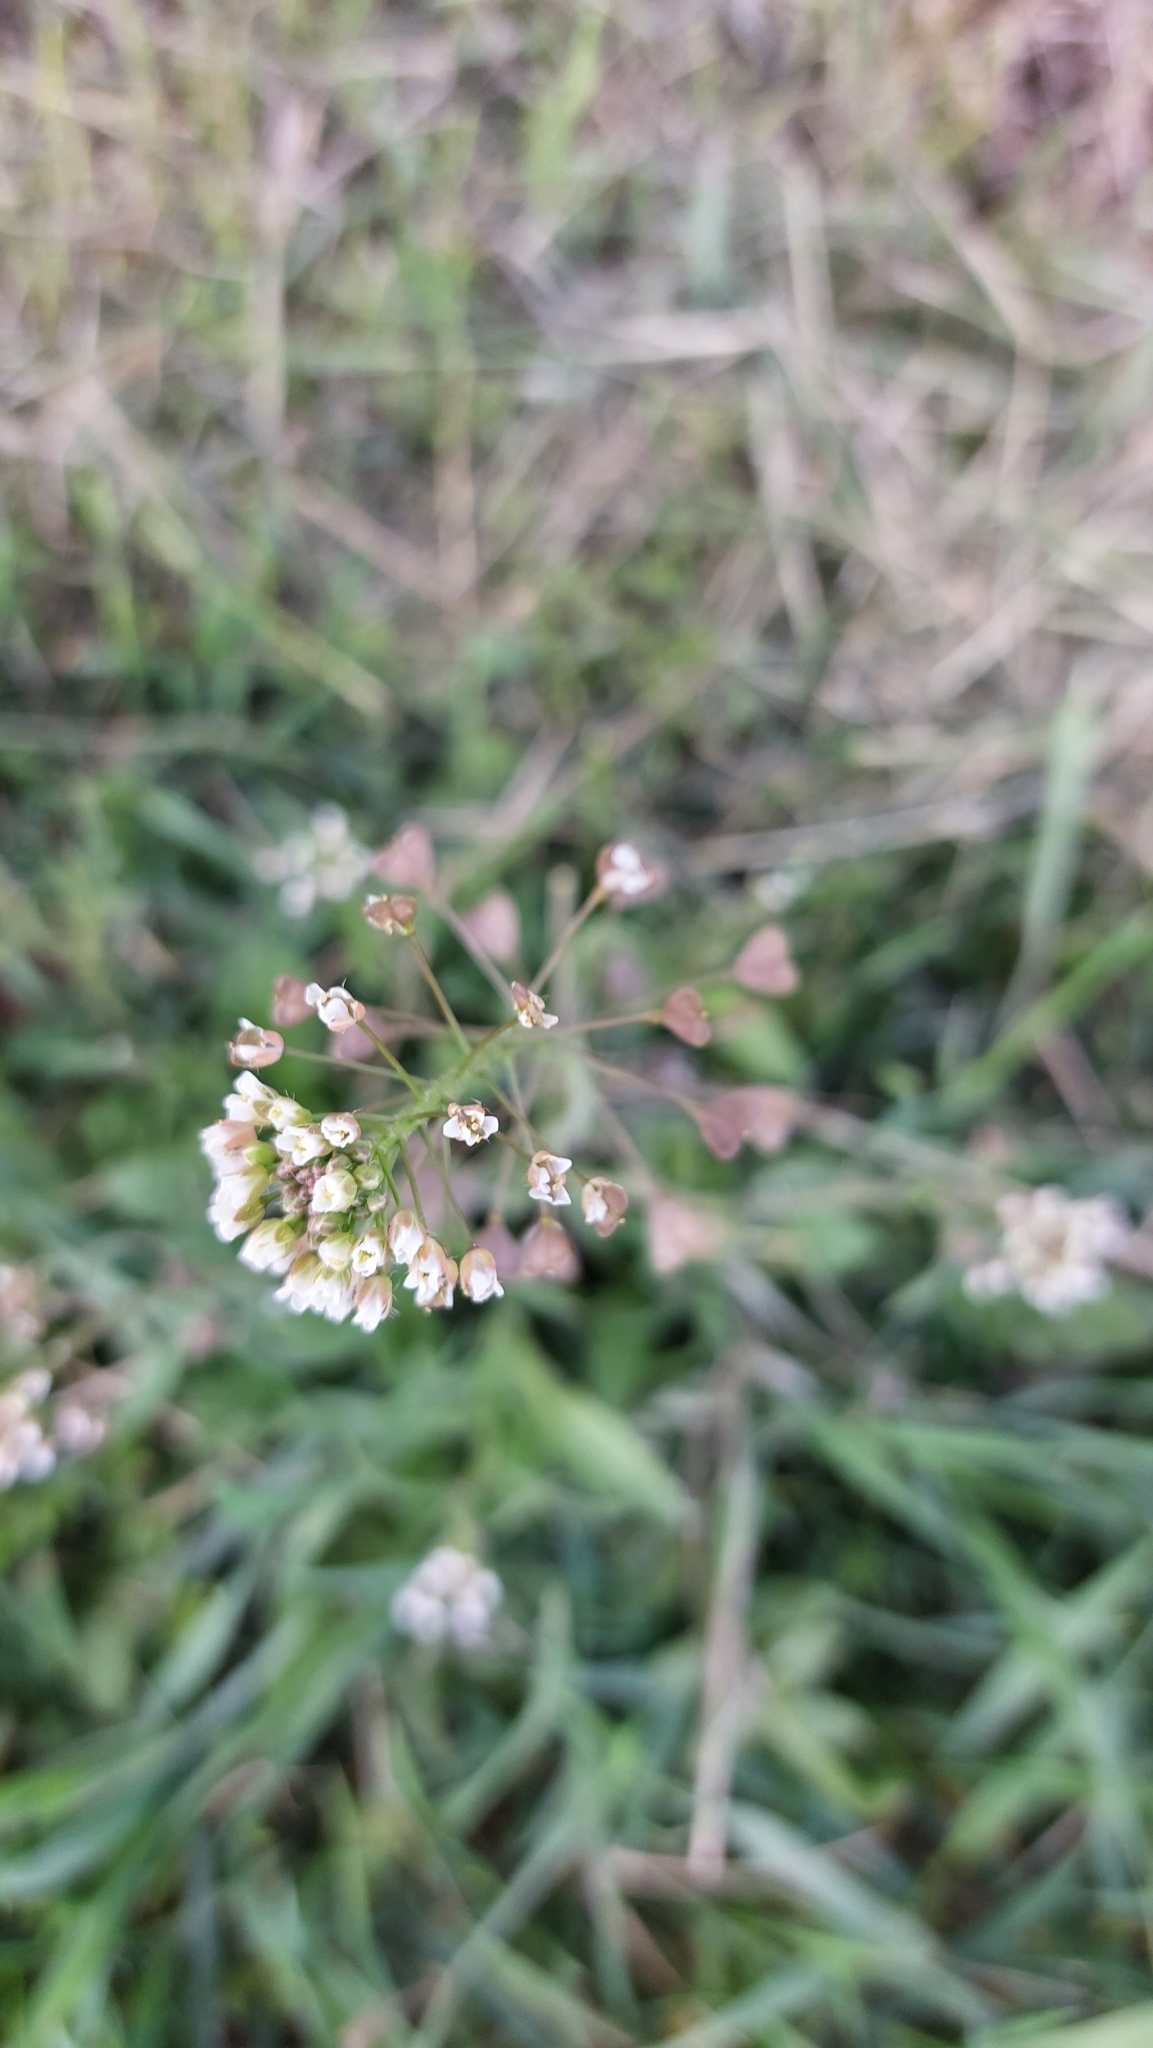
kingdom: Plantae
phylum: Tracheophyta
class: Magnoliopsida
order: Brassicales
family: Brassicaceae
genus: Capsella
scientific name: Capsella bursa-pastoris
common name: Shepherd's purse
